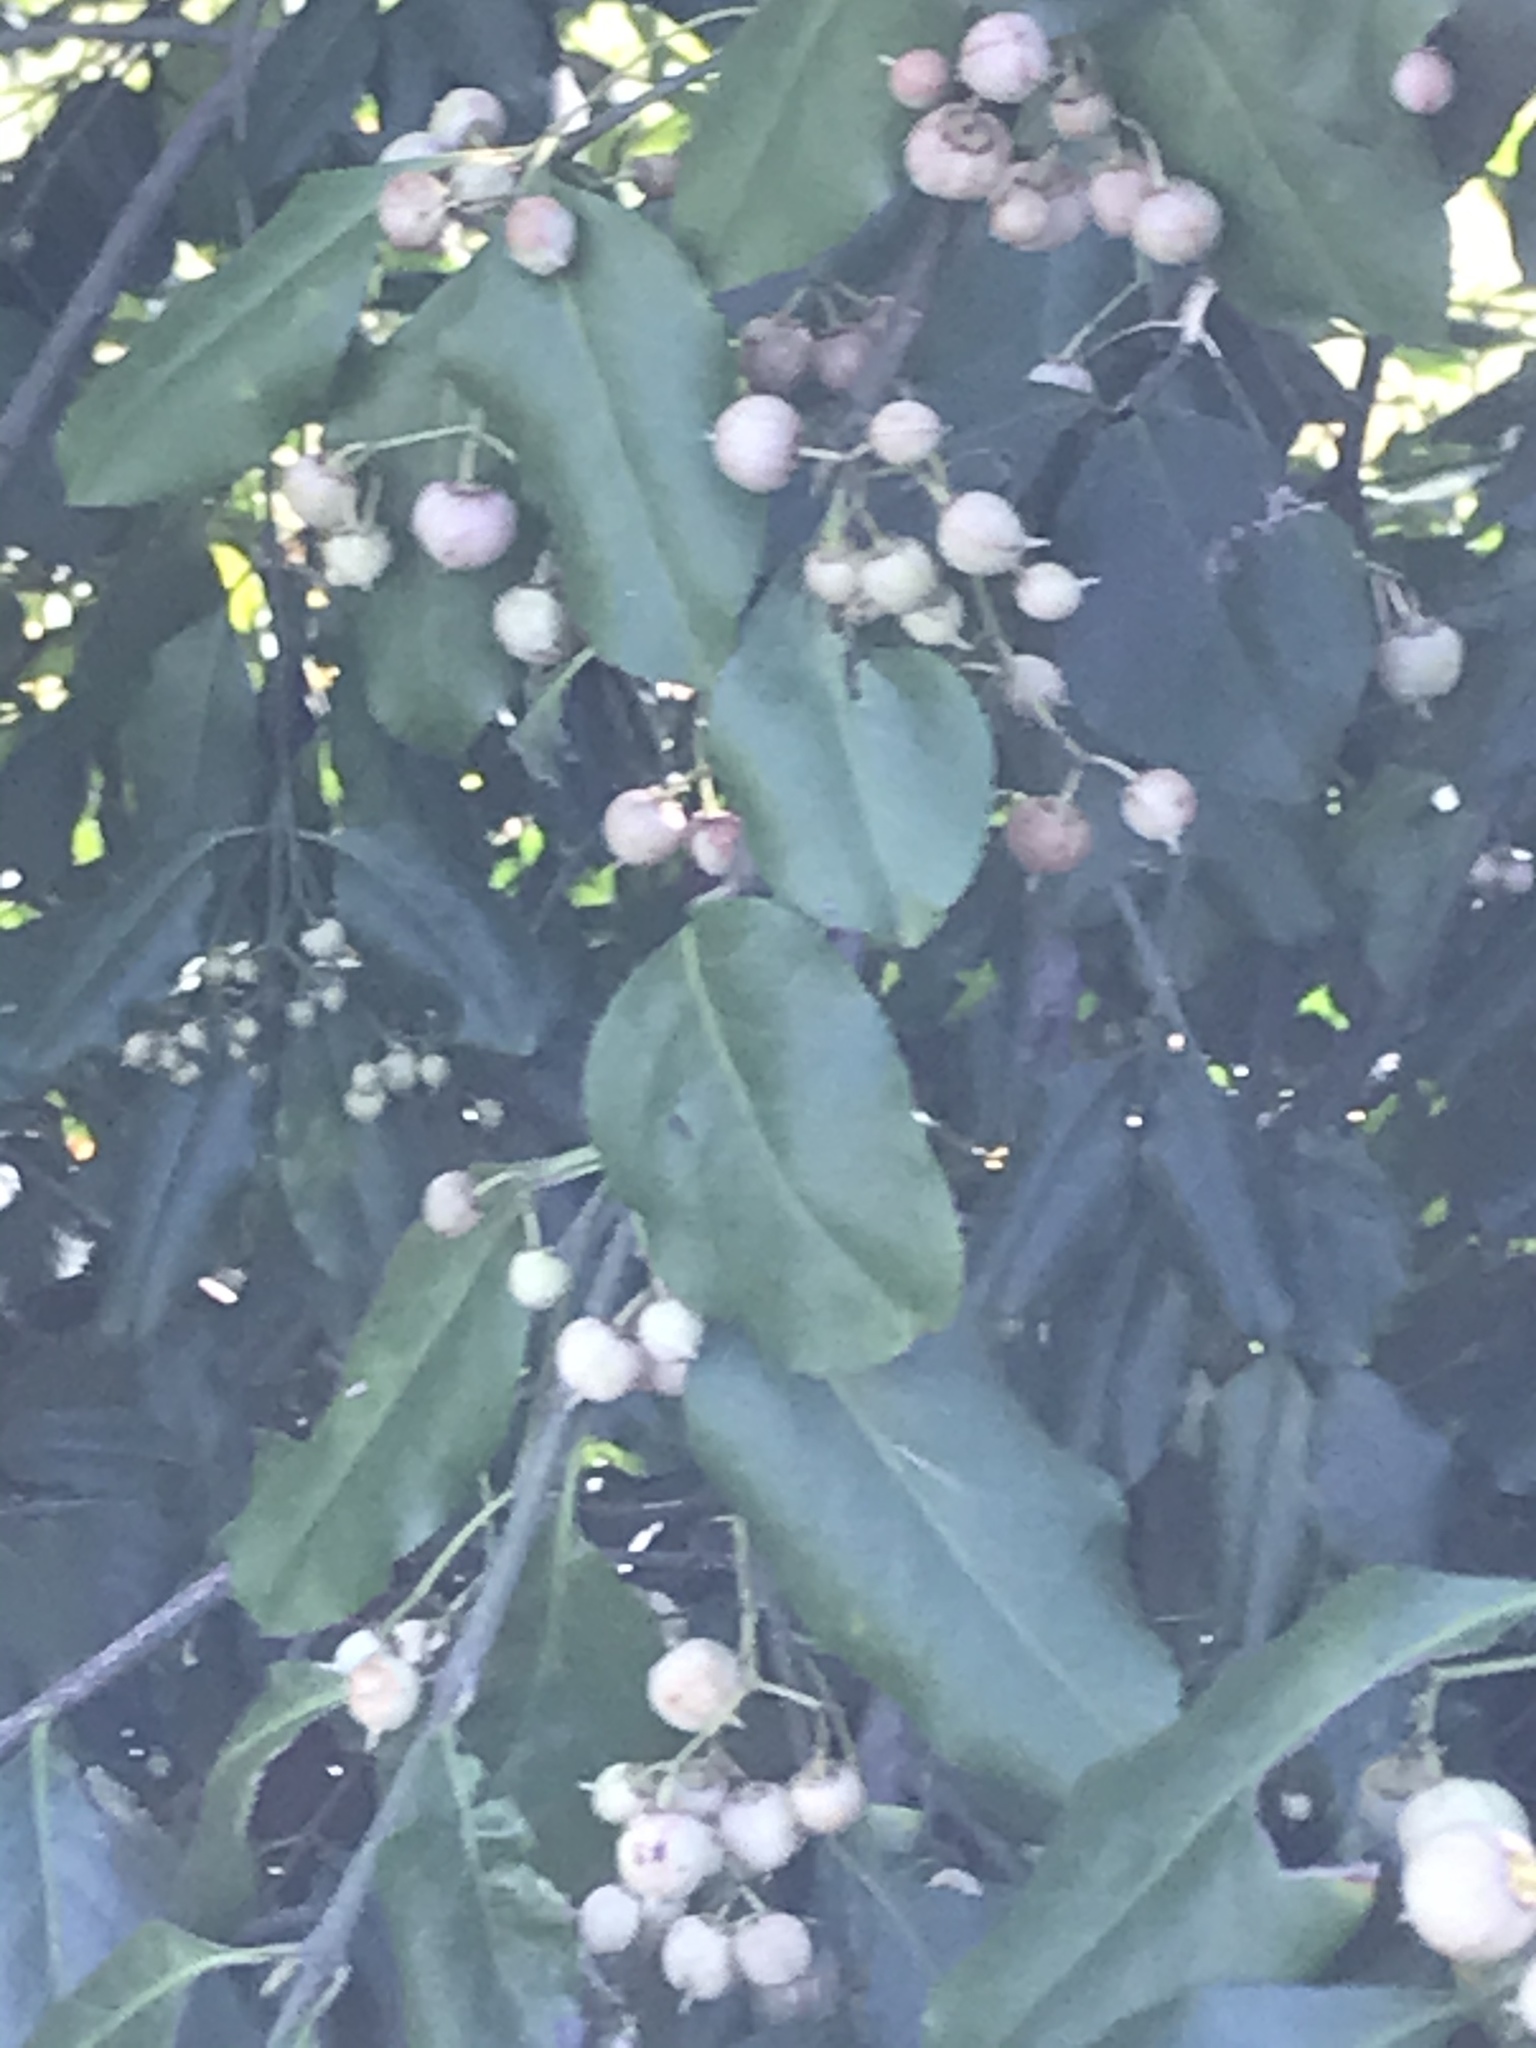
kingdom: Plantae
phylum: Tracheophyta
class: Magnoliopsida
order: Celastrales
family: Celastraceae
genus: Euonymus
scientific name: Euonymus fortunei
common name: Climbing euonymus
